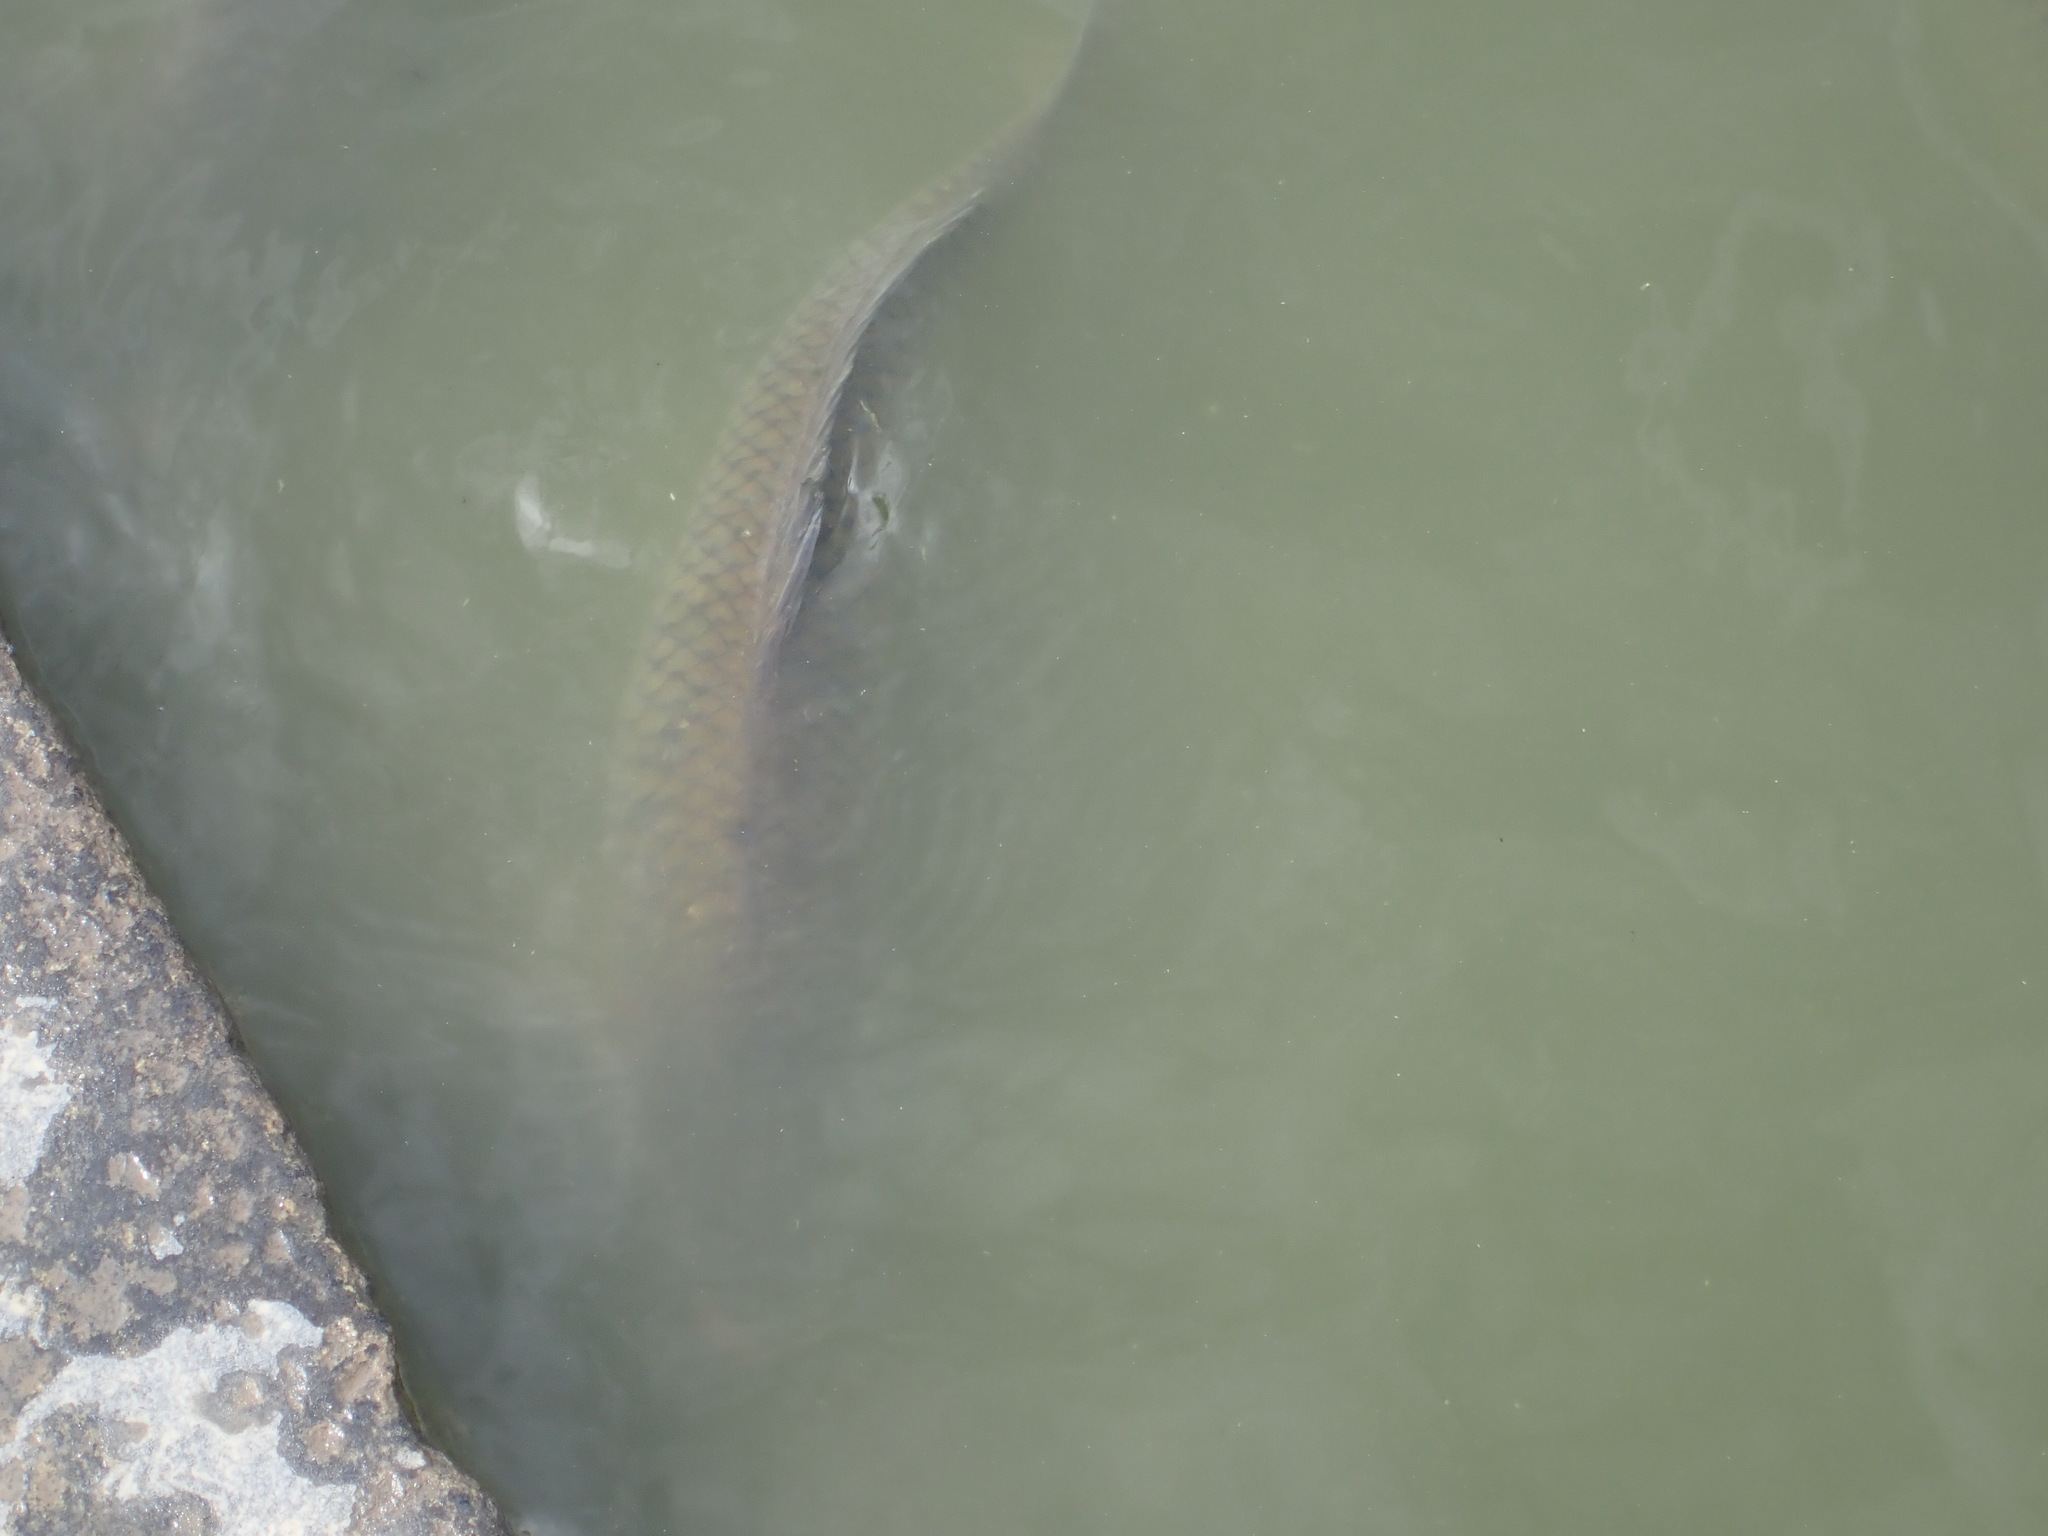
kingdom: Animalia
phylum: Chordata
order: Cypriniformes
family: Cyprinidae
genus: Cyprinus
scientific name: Cyprinus carpio
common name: Common carp
